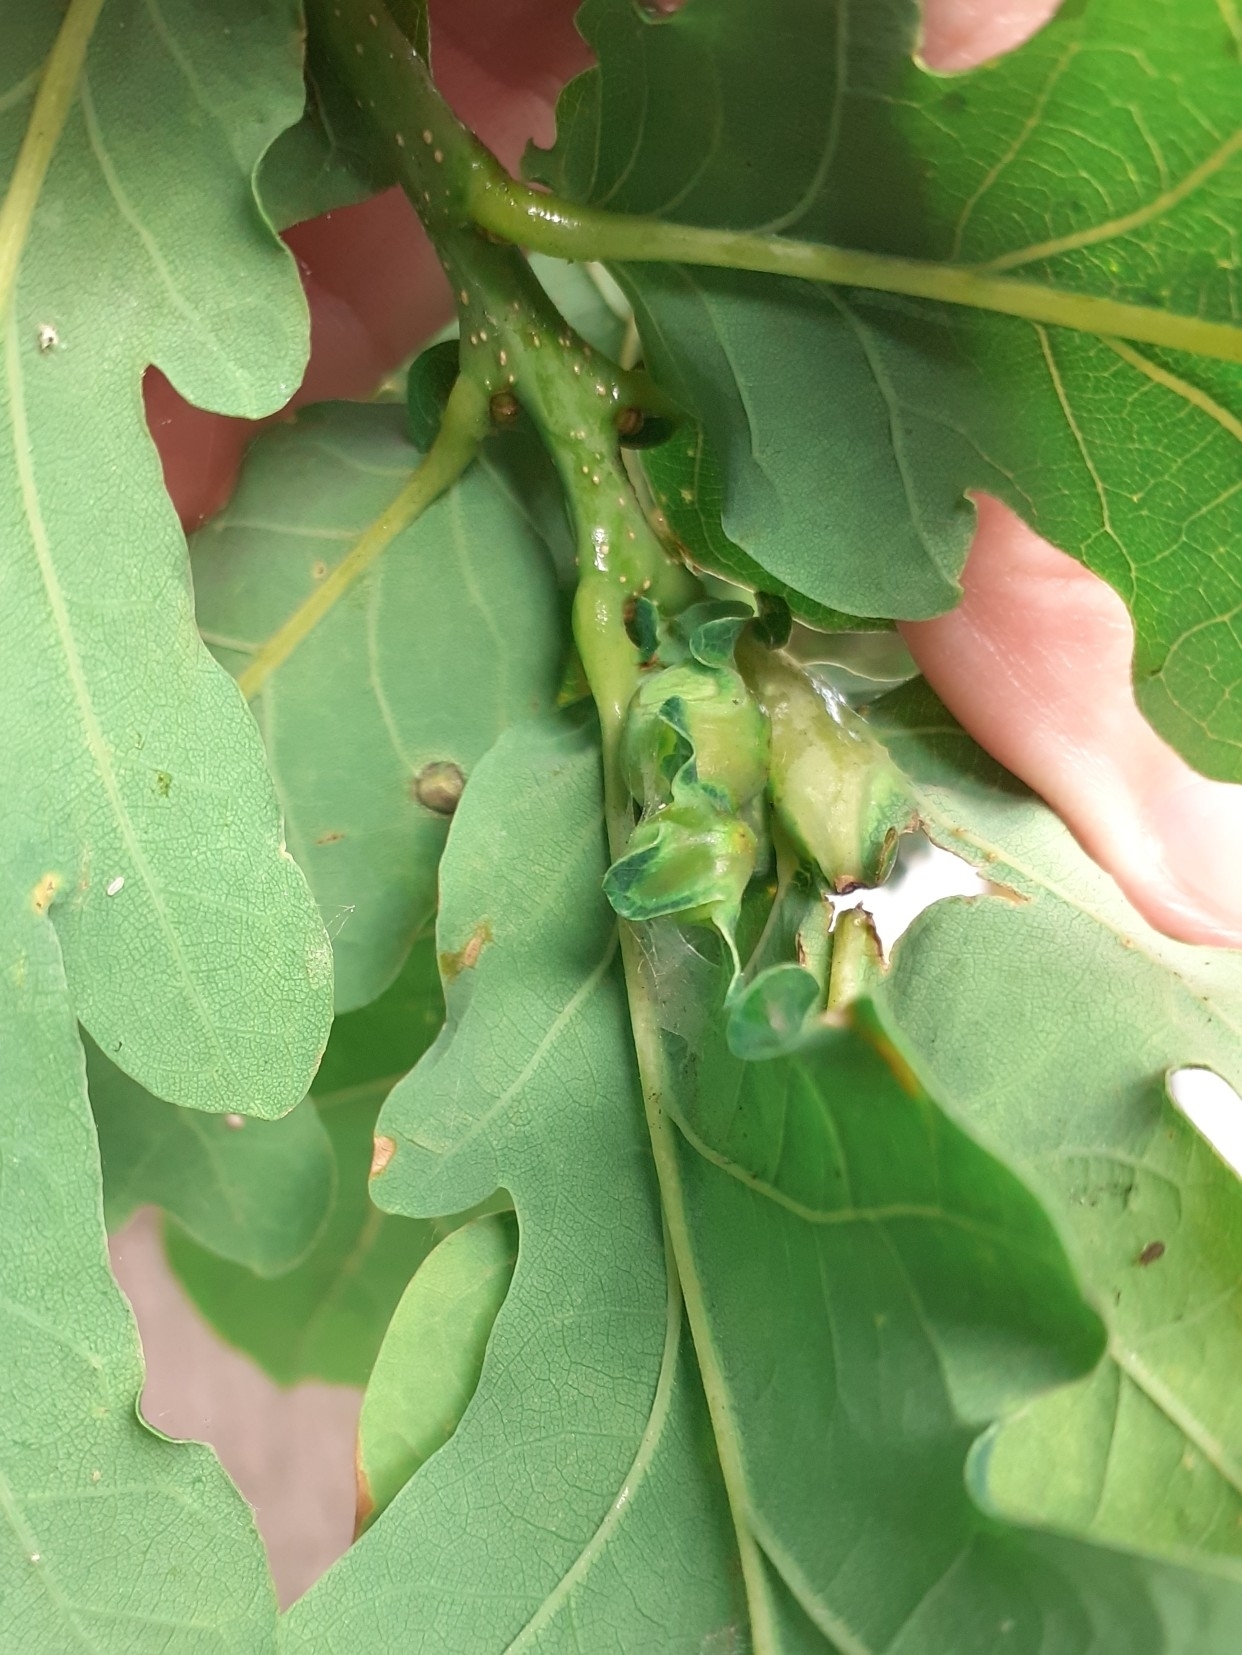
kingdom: Animalia
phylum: Arthropoda
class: Insecta
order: Hymenoptera
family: Cynipidae
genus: Andricus
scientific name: Andricus curvator
